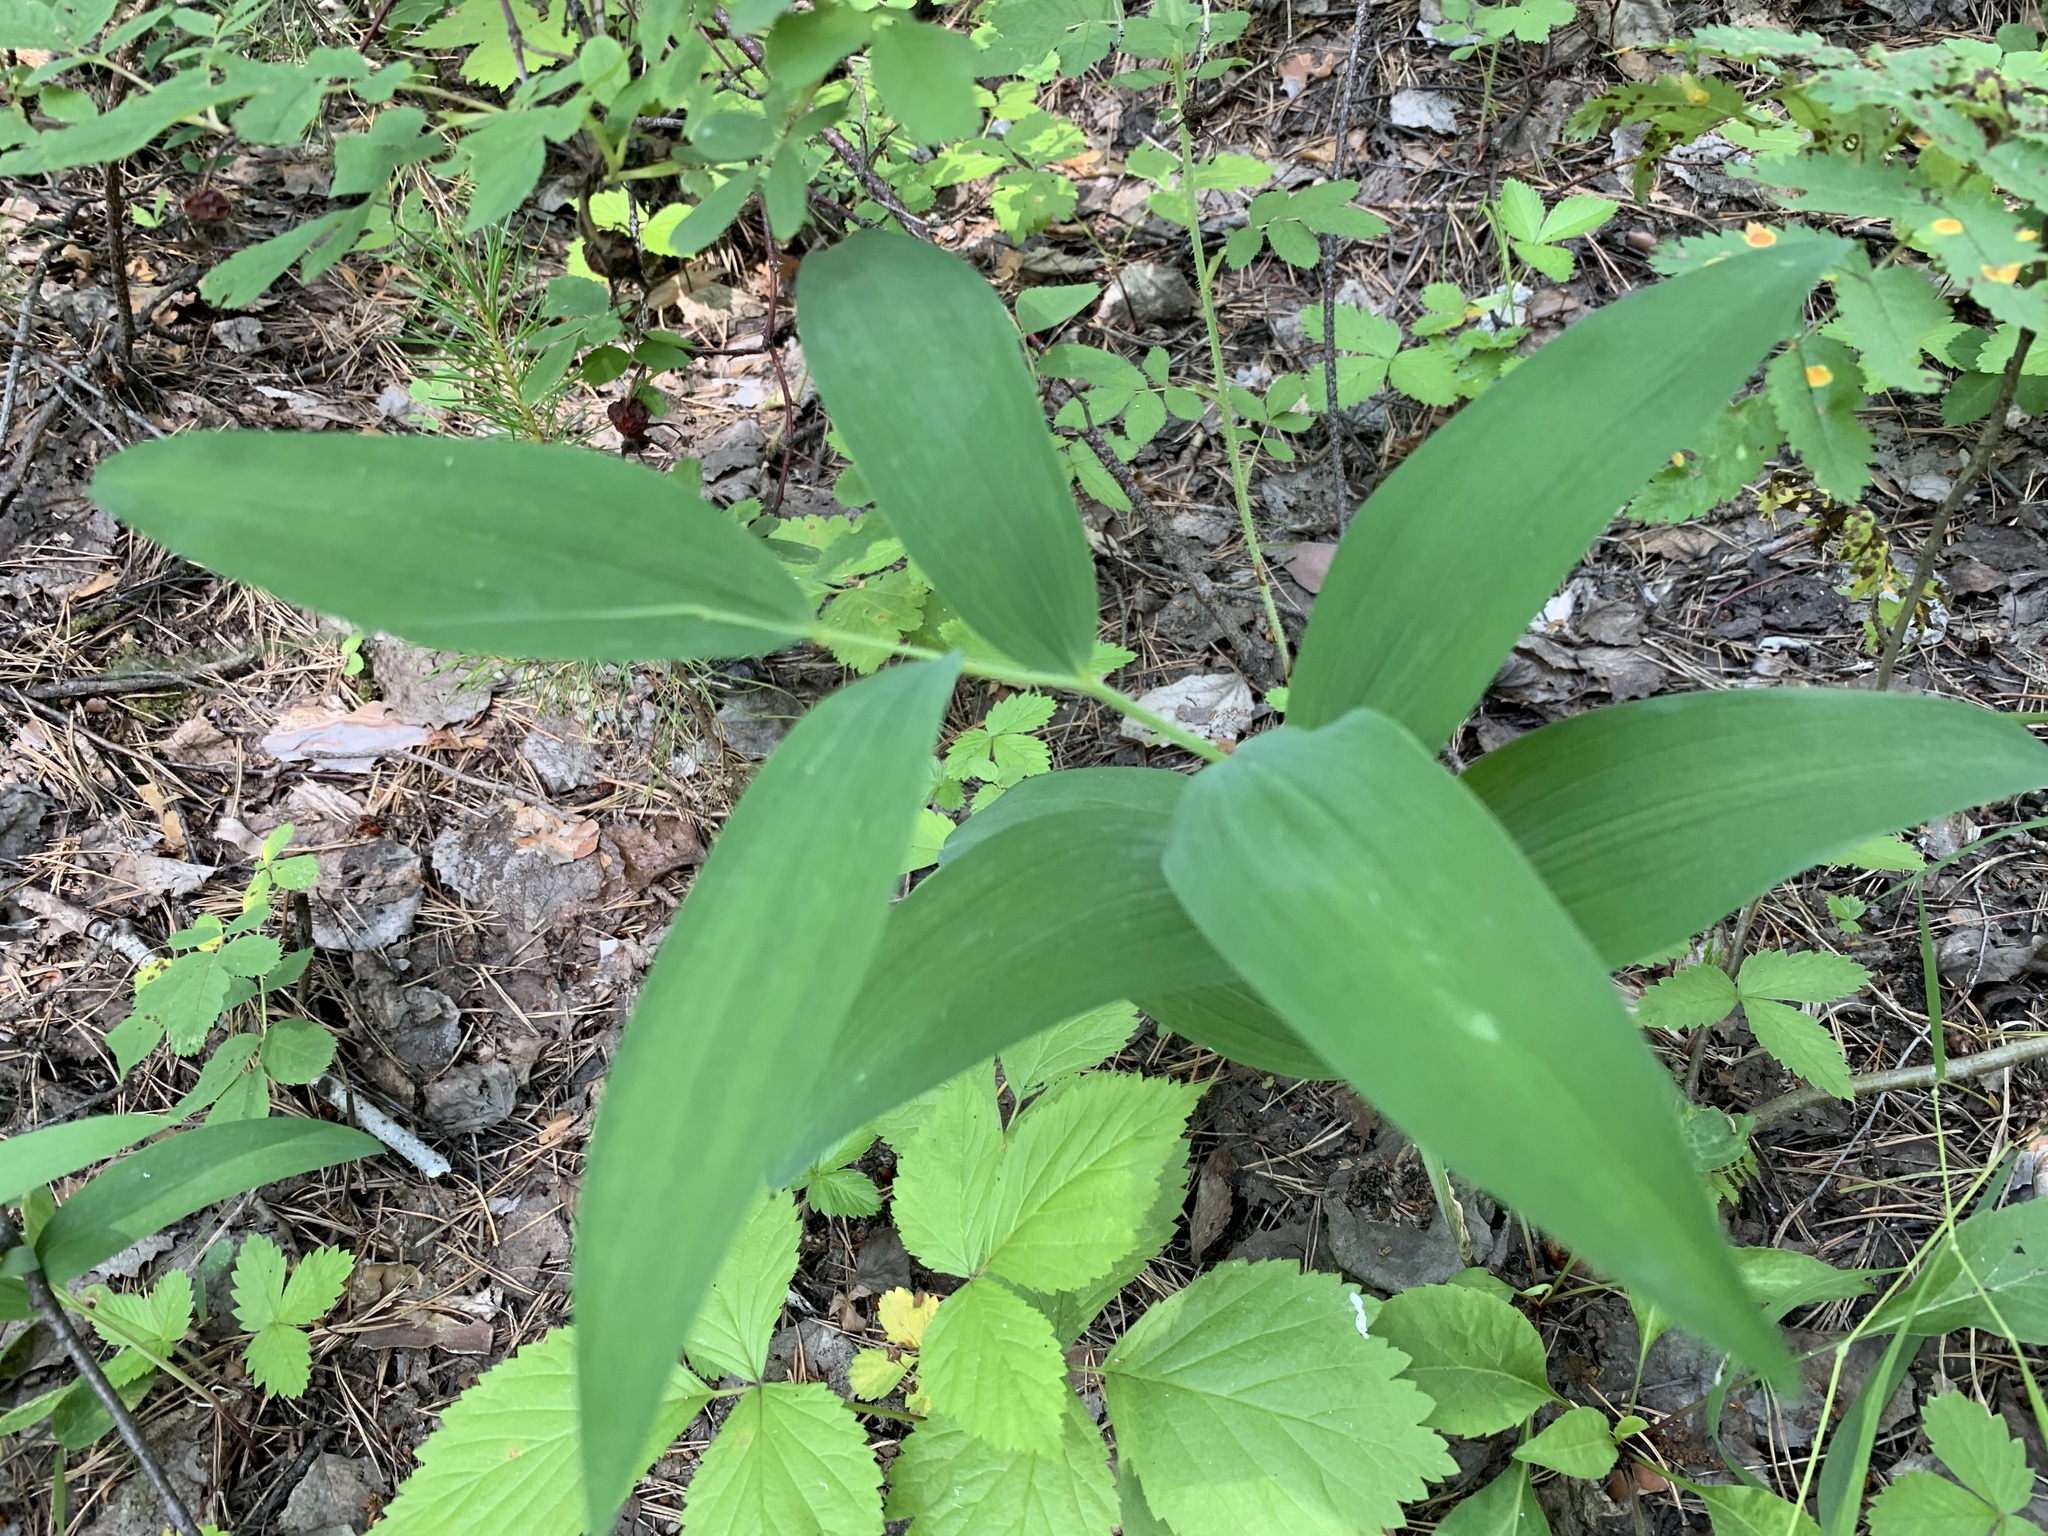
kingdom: Plantae
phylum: Tracheophyta
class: Liliopsida
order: Asparagales
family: Asparagaceae
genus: Polygonatum
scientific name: Polygonatum odoratum
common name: Angular solomon's-seal
